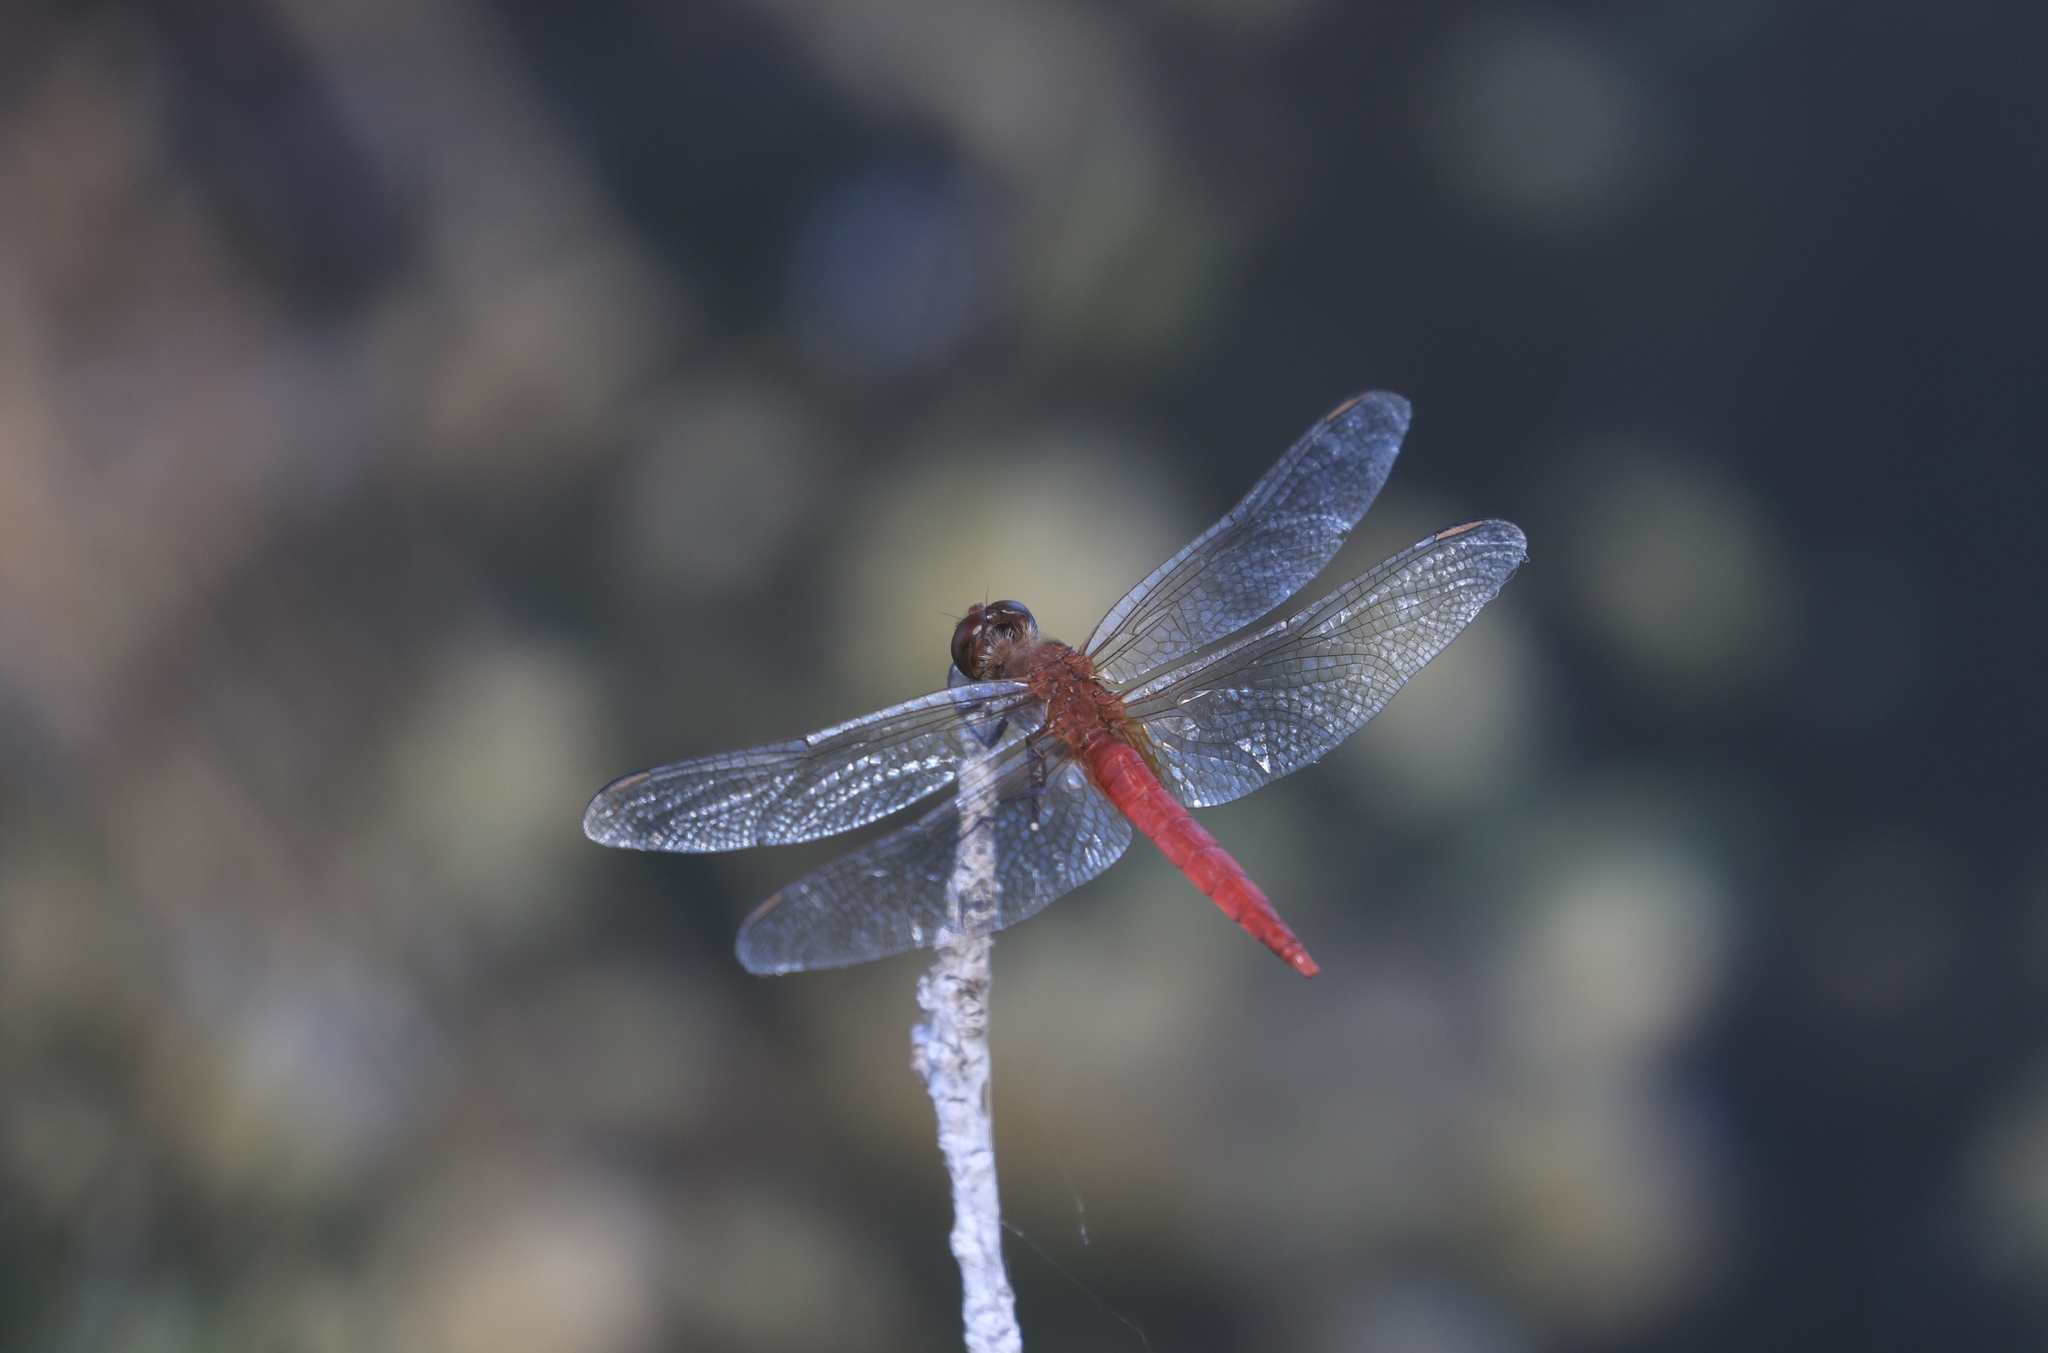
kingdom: Animalia
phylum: Arthropoda
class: Insecta
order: Odonata
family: Libellulidae
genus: Brachymesia
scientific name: Brachymesia furcata
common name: Red-taled pennant
